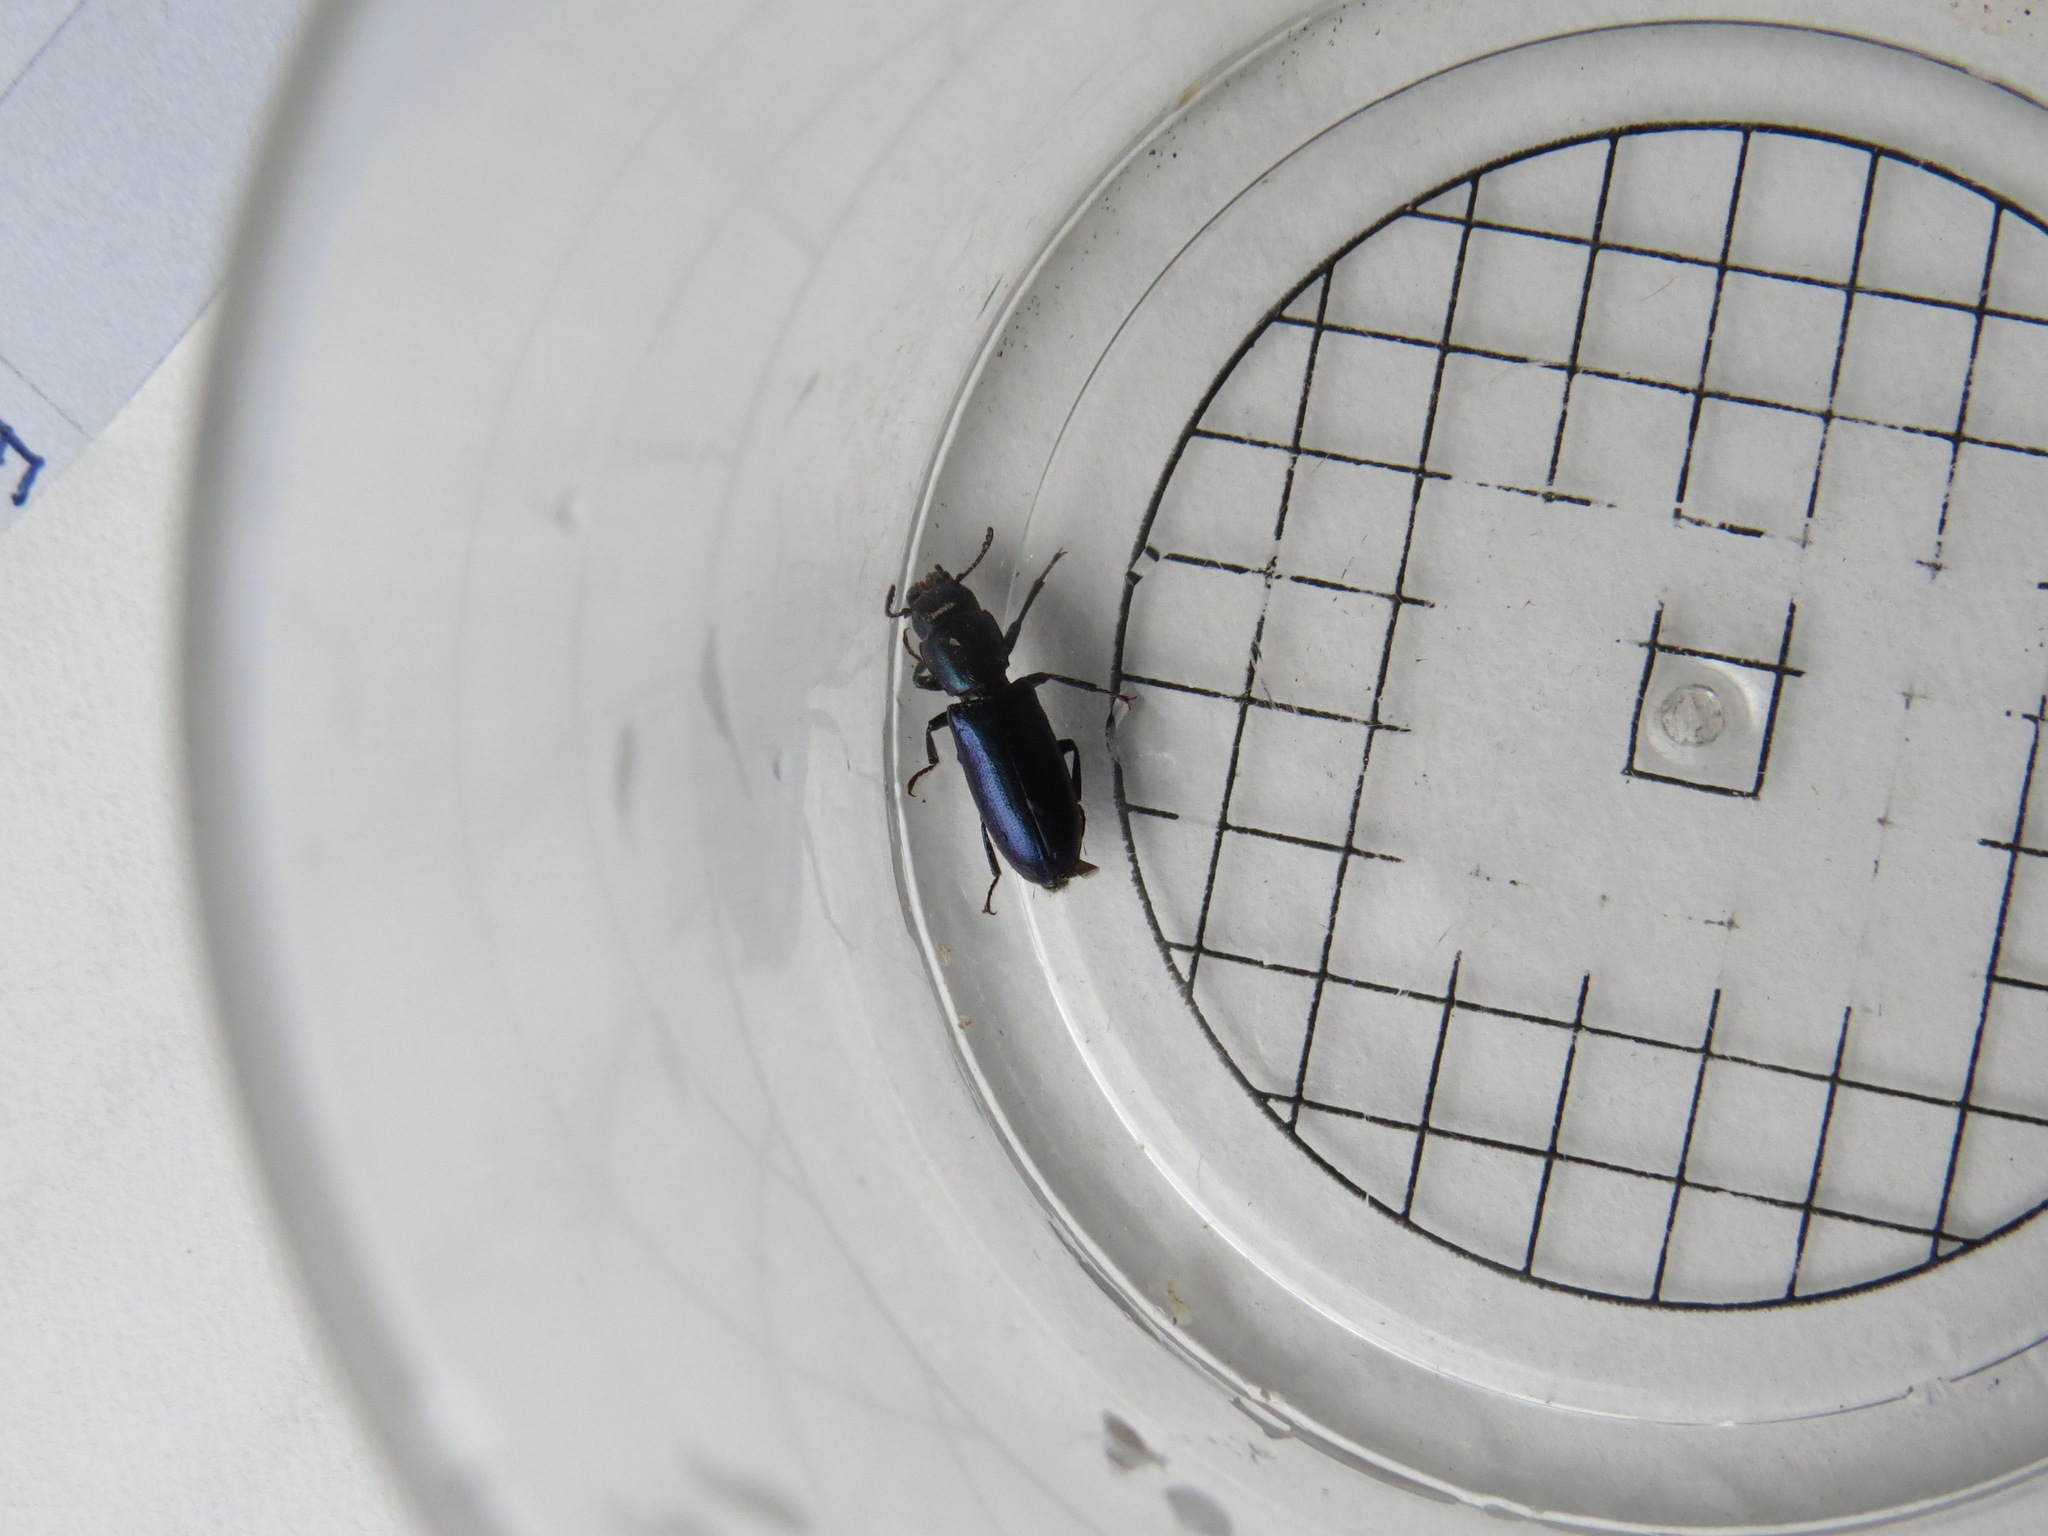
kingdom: Animalia
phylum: Arthropoda
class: Insecta
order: Coleoptera
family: Trogossitidae
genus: Temnoscheila
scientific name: Temnoscheila chlorodia
